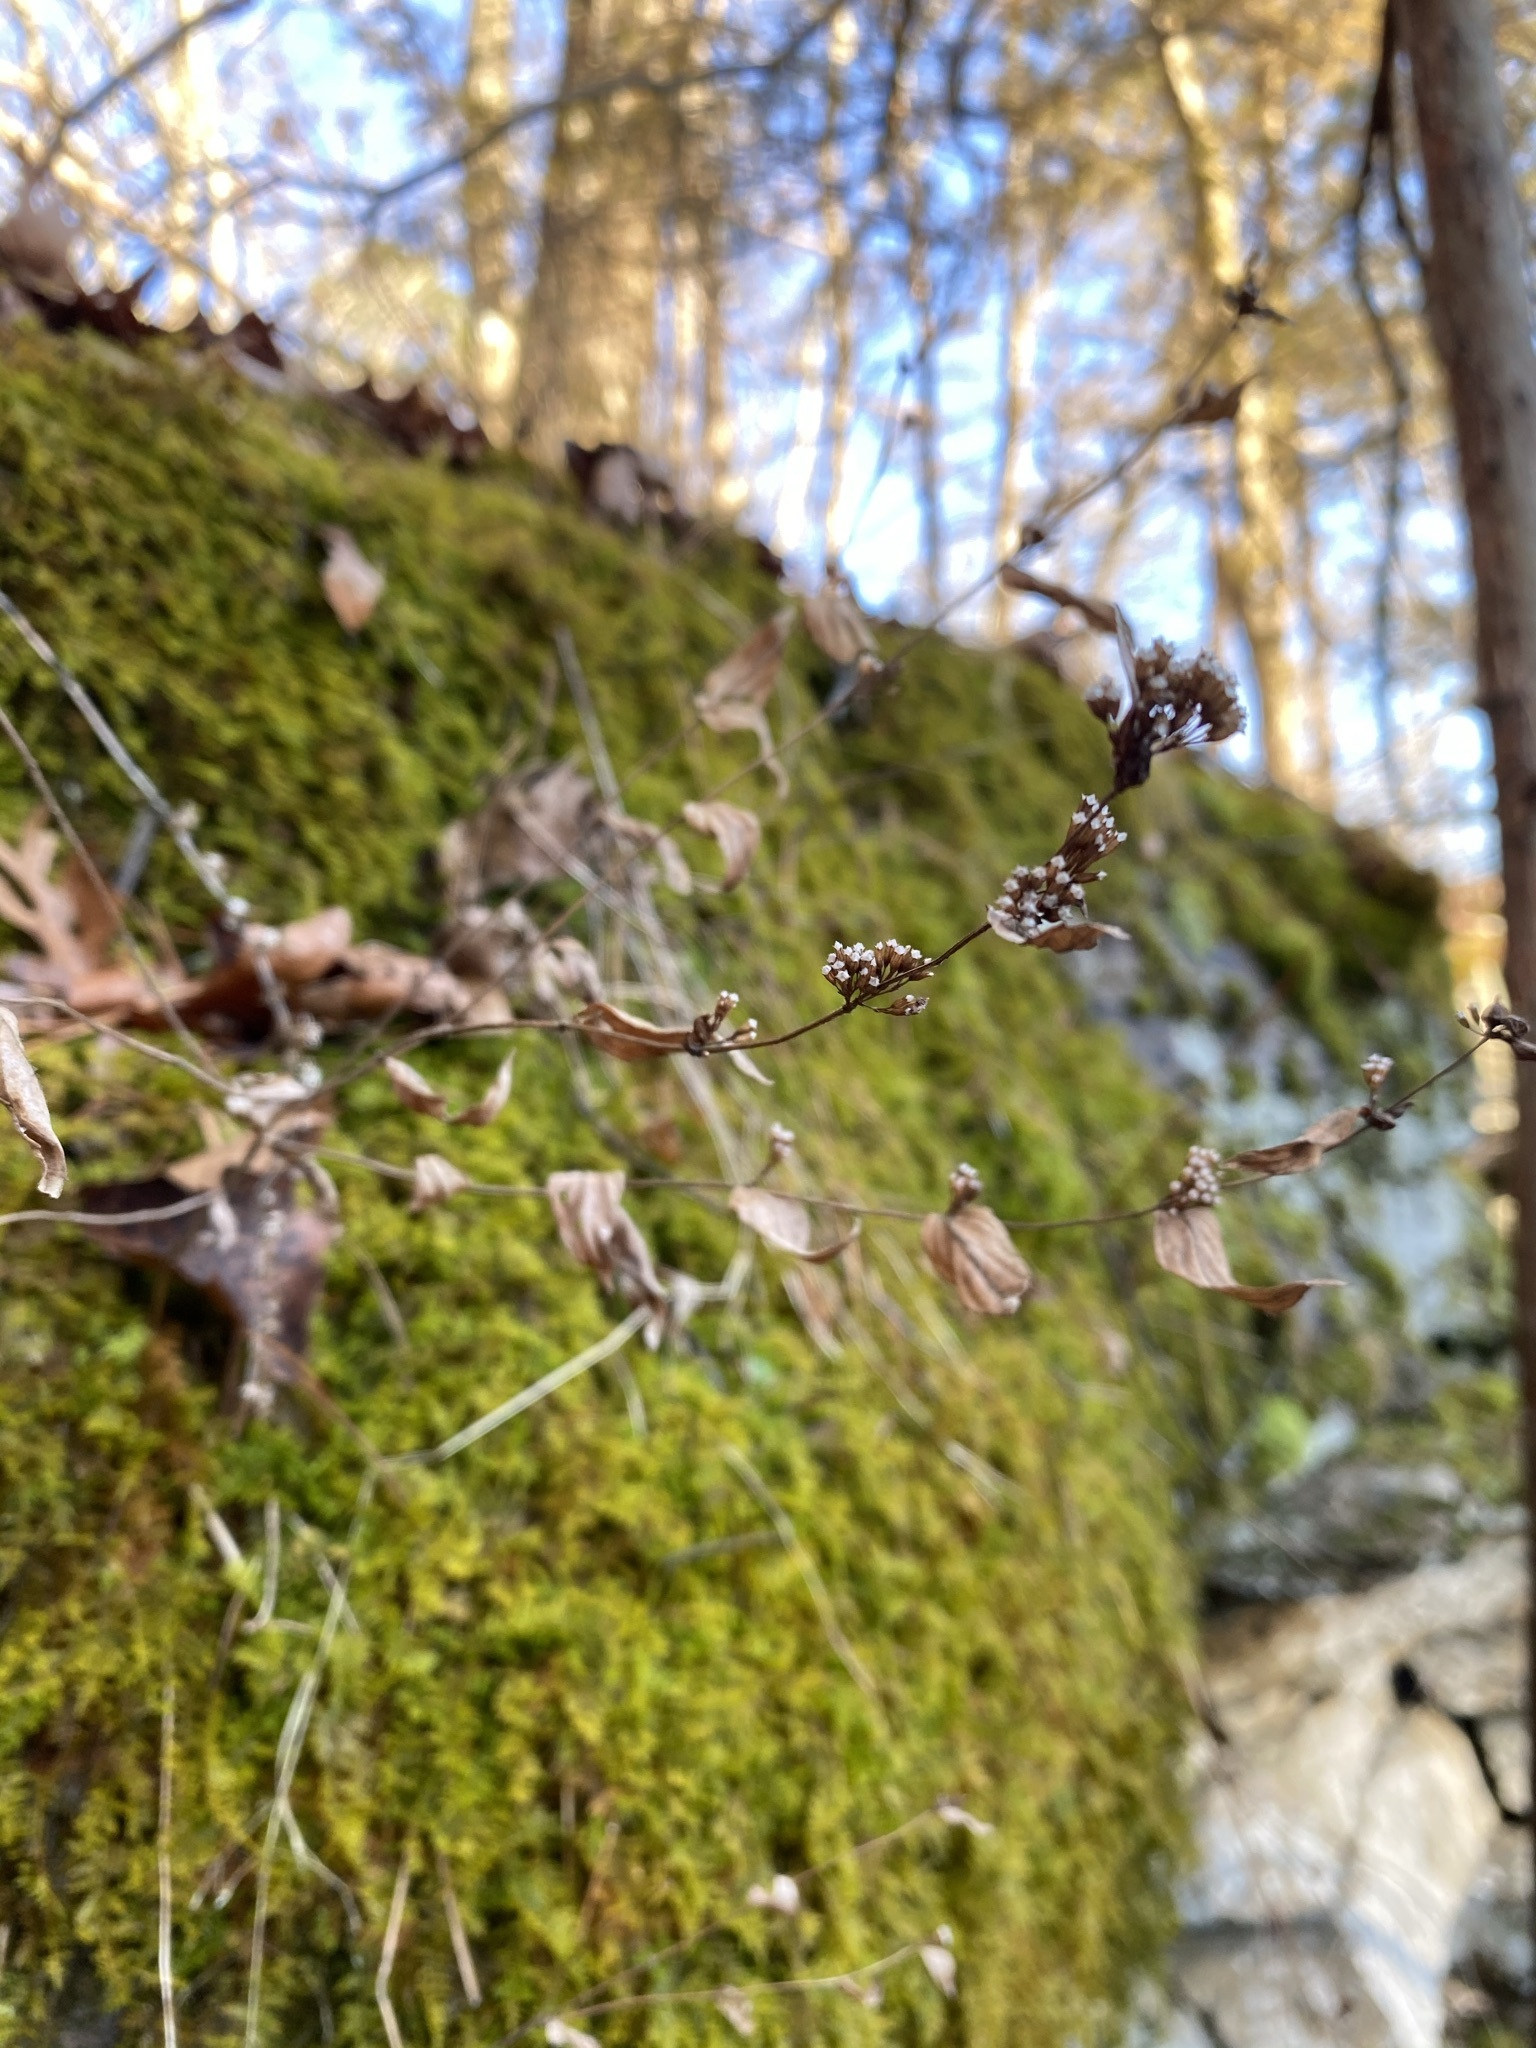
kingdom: Plantae
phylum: Tracheophyta
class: Magnoliopsida
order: Lamiales
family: Lamiaceae
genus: Cunila
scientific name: Cunila origanoides
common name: American dittany
